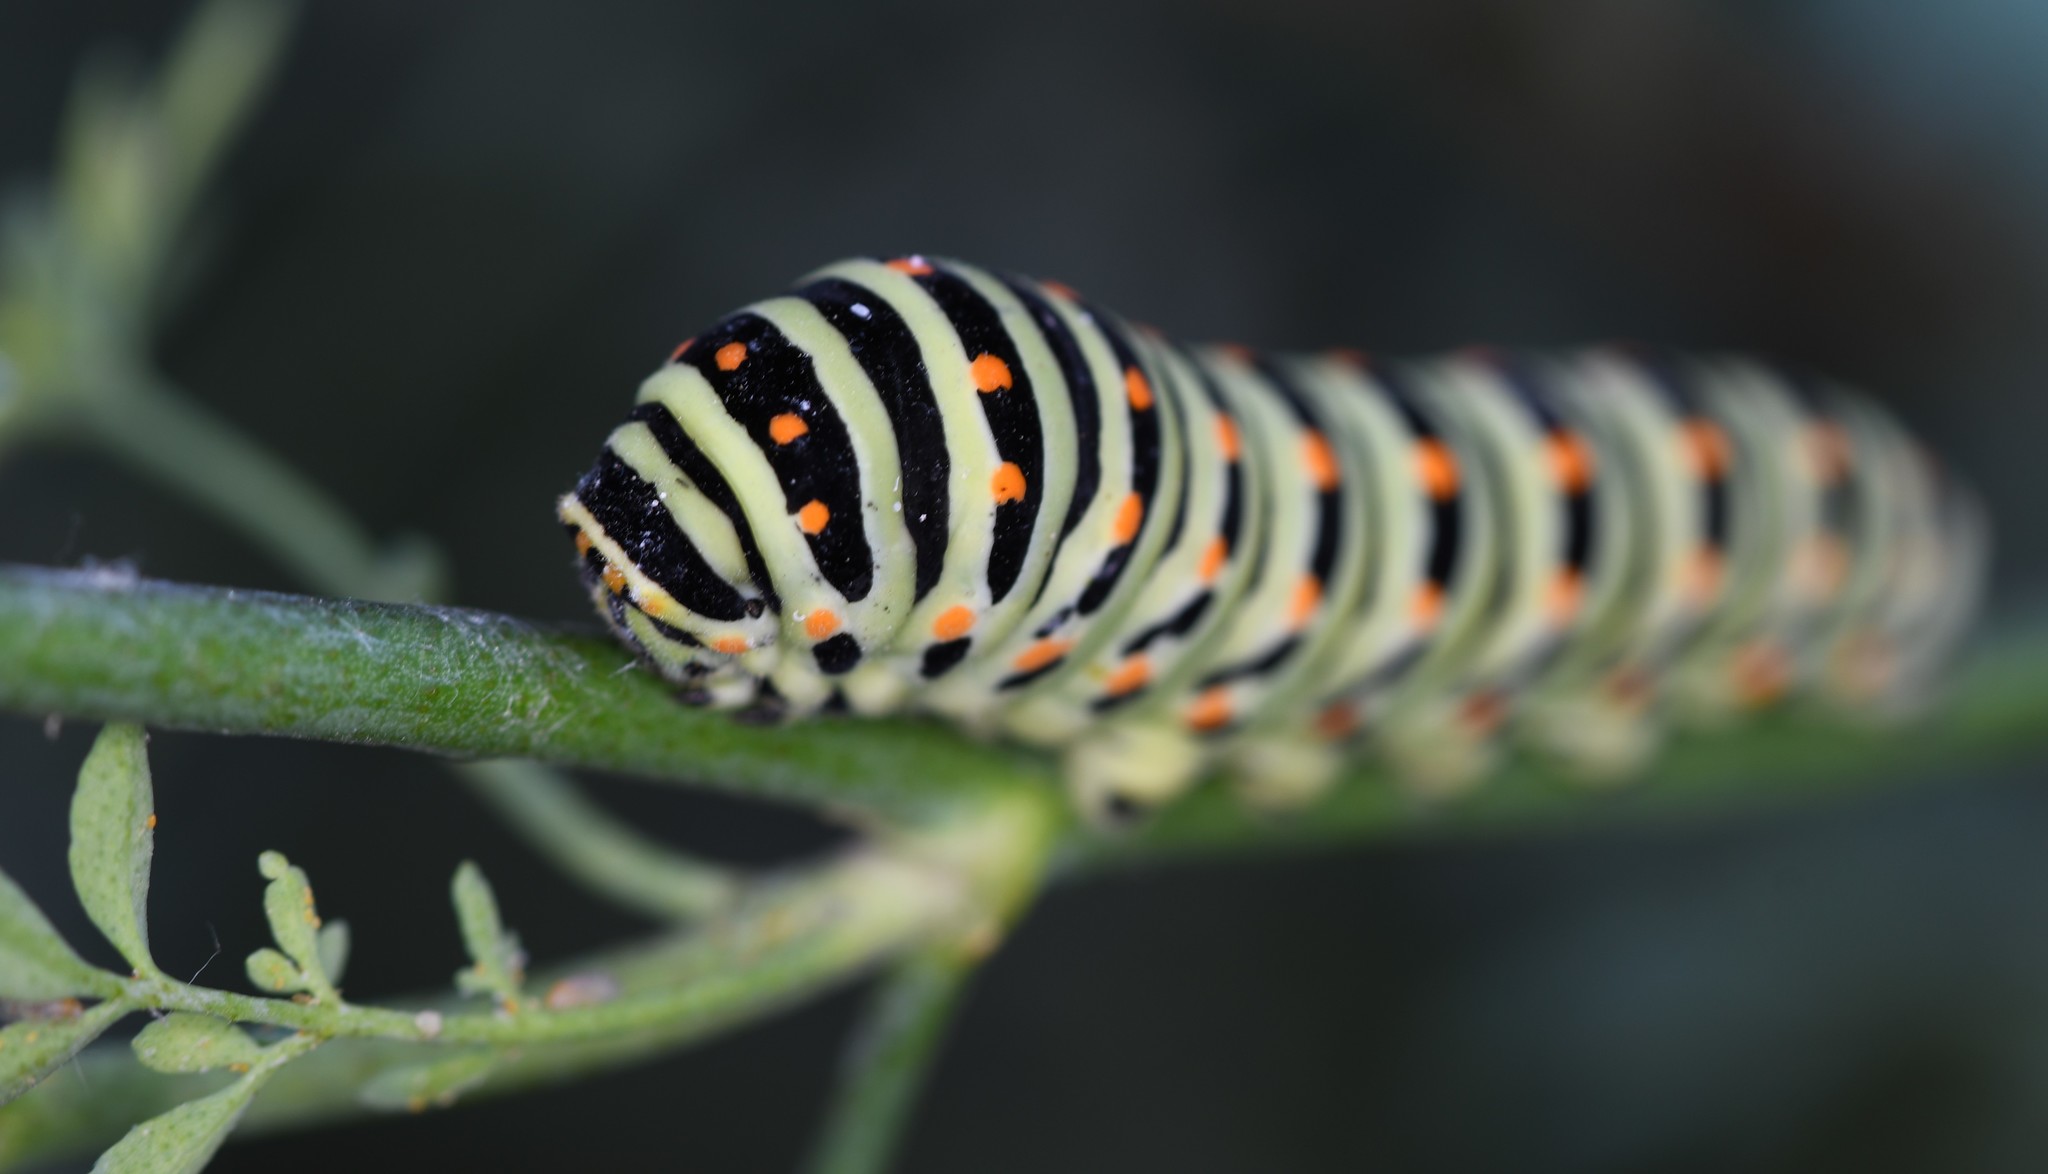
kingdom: Animalia
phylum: Arthropoda
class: Insecta
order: Lepidoptera
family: Papilionidae
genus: Papilio
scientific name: Papilio machaon
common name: Swallowtail
